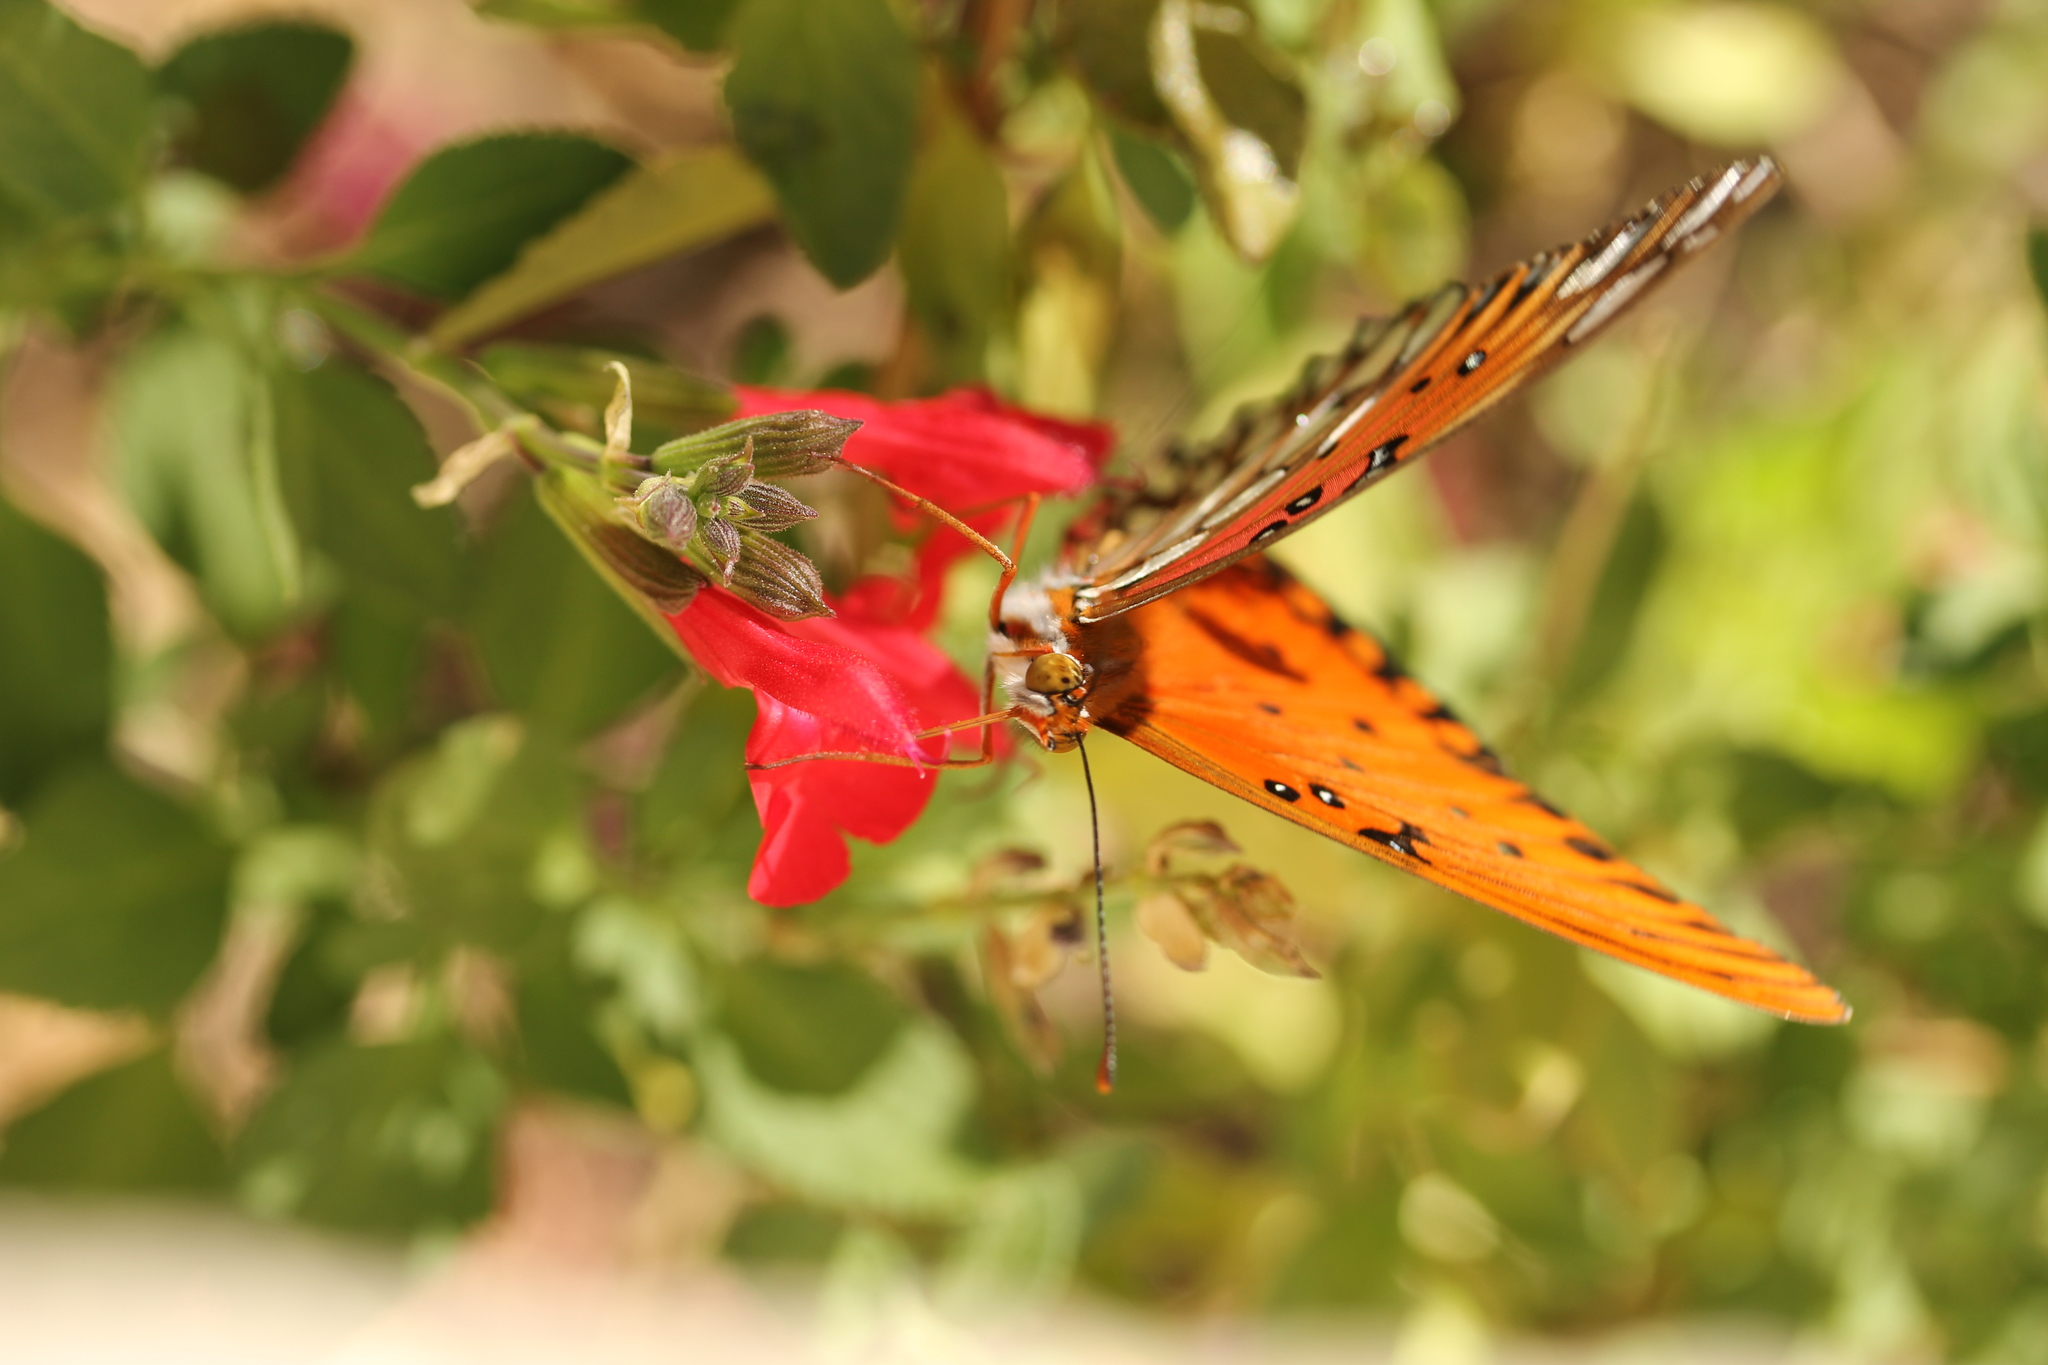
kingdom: Animalia
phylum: Arthropoda
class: Insecta
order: Lepidoptera
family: Nymphalidae
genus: Dione
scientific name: Dione vanillae
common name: Gulf fritillary
